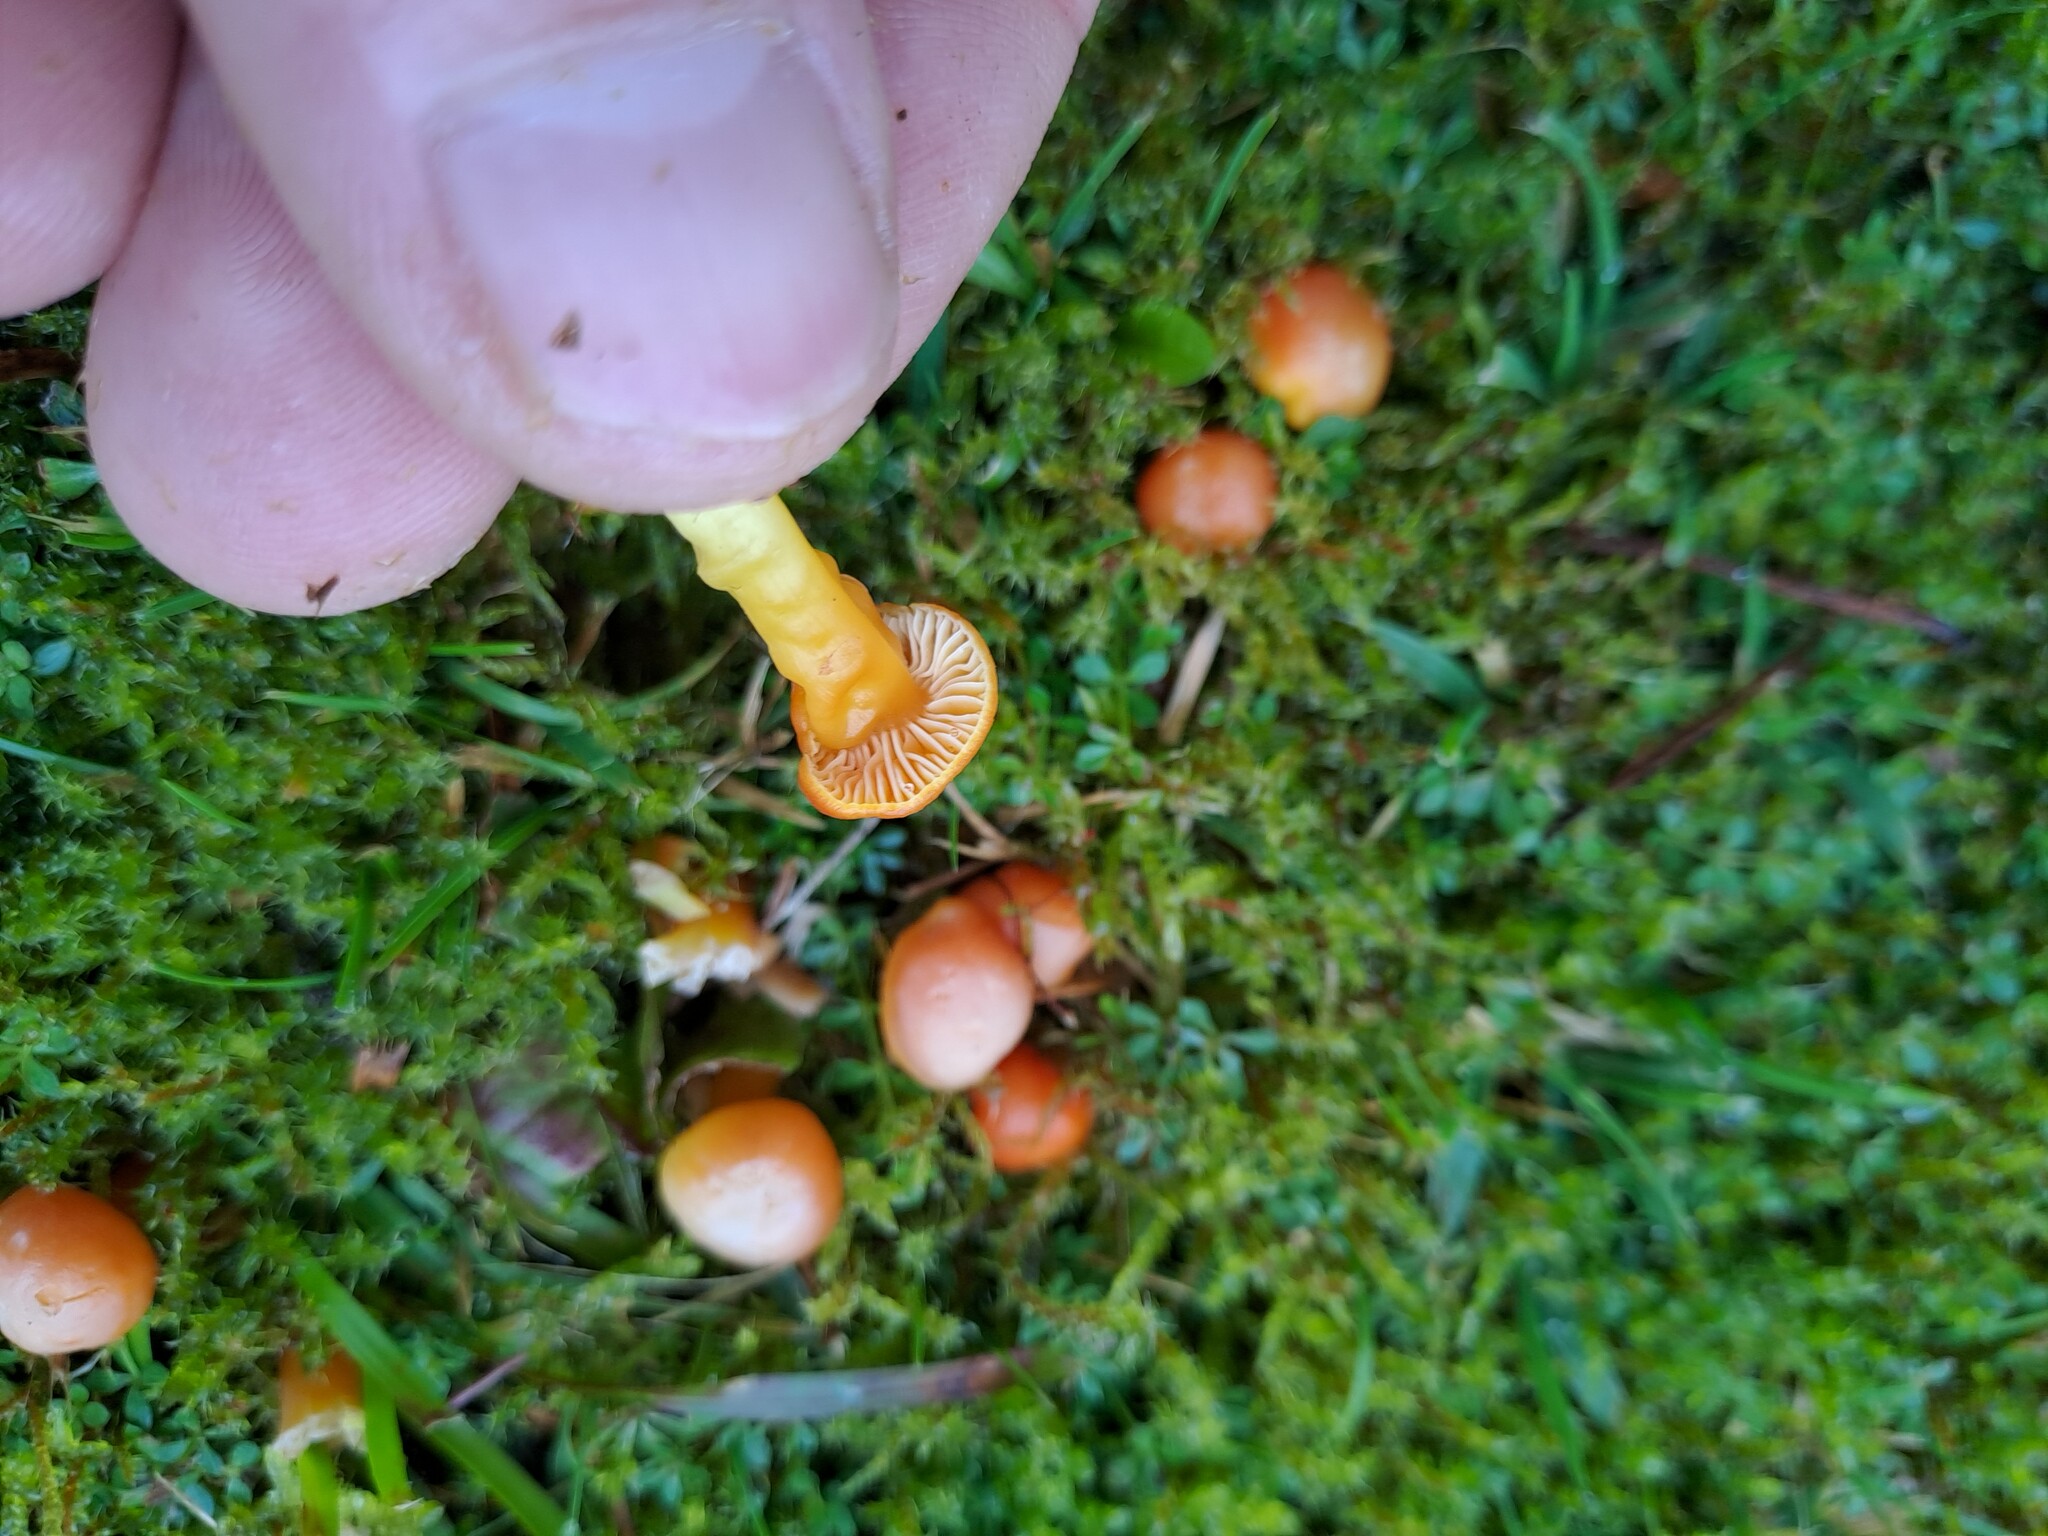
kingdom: Fungi
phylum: Basidiomycota
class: Agaricomycetes
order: Agaricales
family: Hygrophoraceae
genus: Hygrocybe
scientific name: Hygrocybe reidii
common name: Honey waxcap
